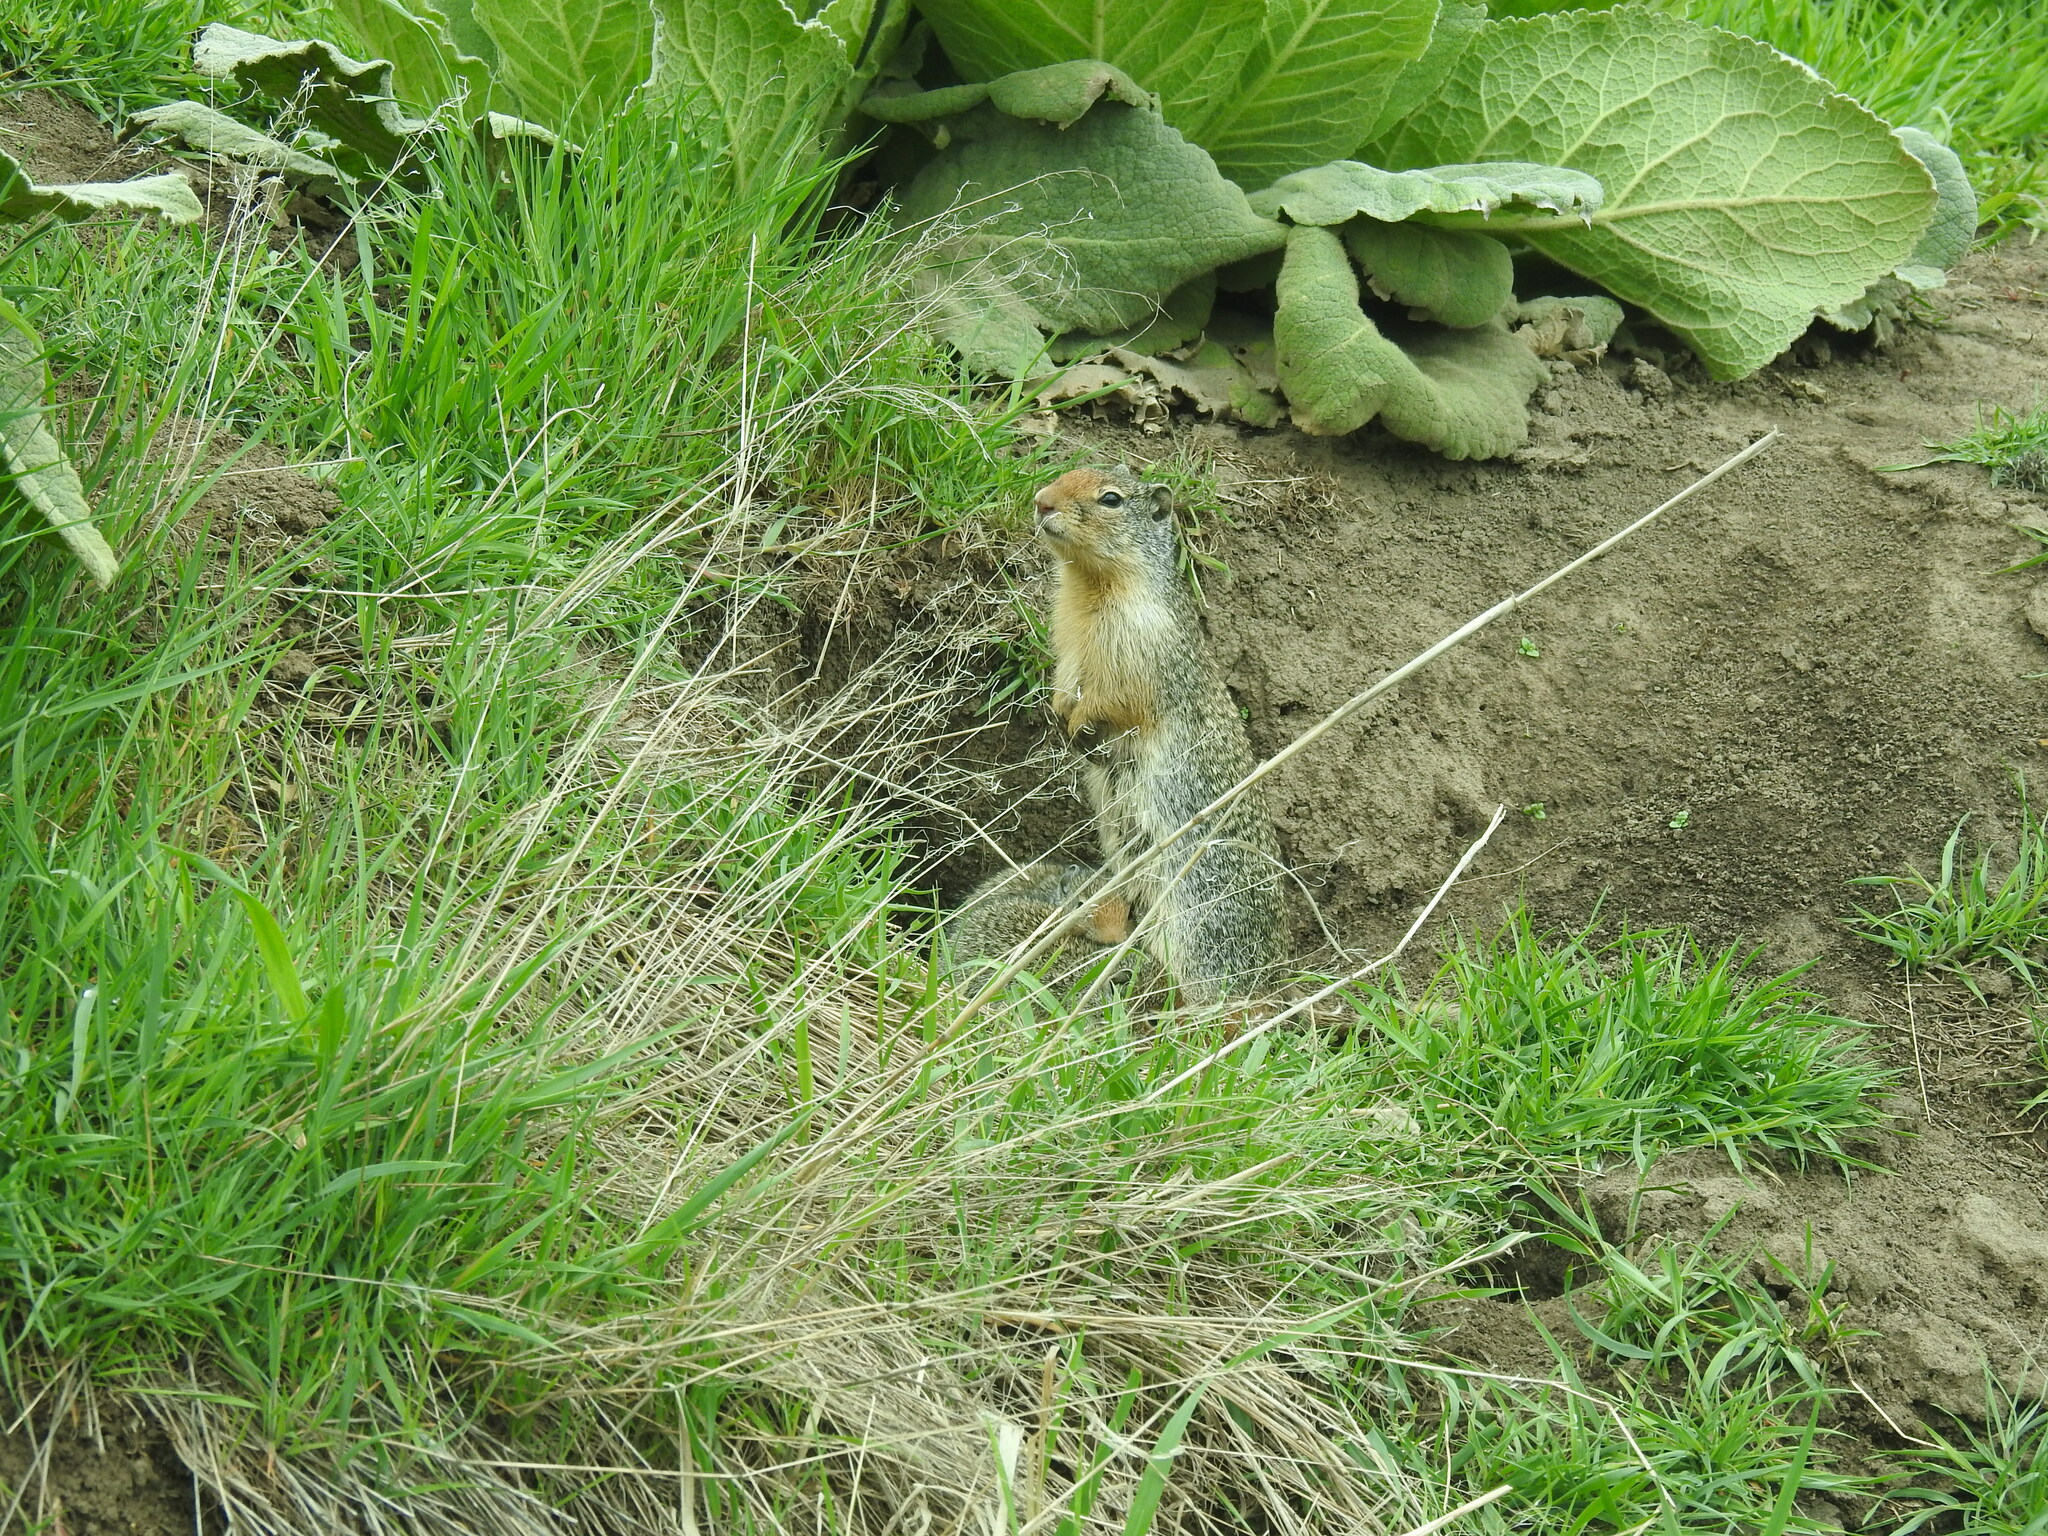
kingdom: Animalia
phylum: Chordata
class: Mammalia
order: Rodentia
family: Sciuridae
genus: Urocitellus
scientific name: Urocitellus columbianus
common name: Columbian ground squirrel
